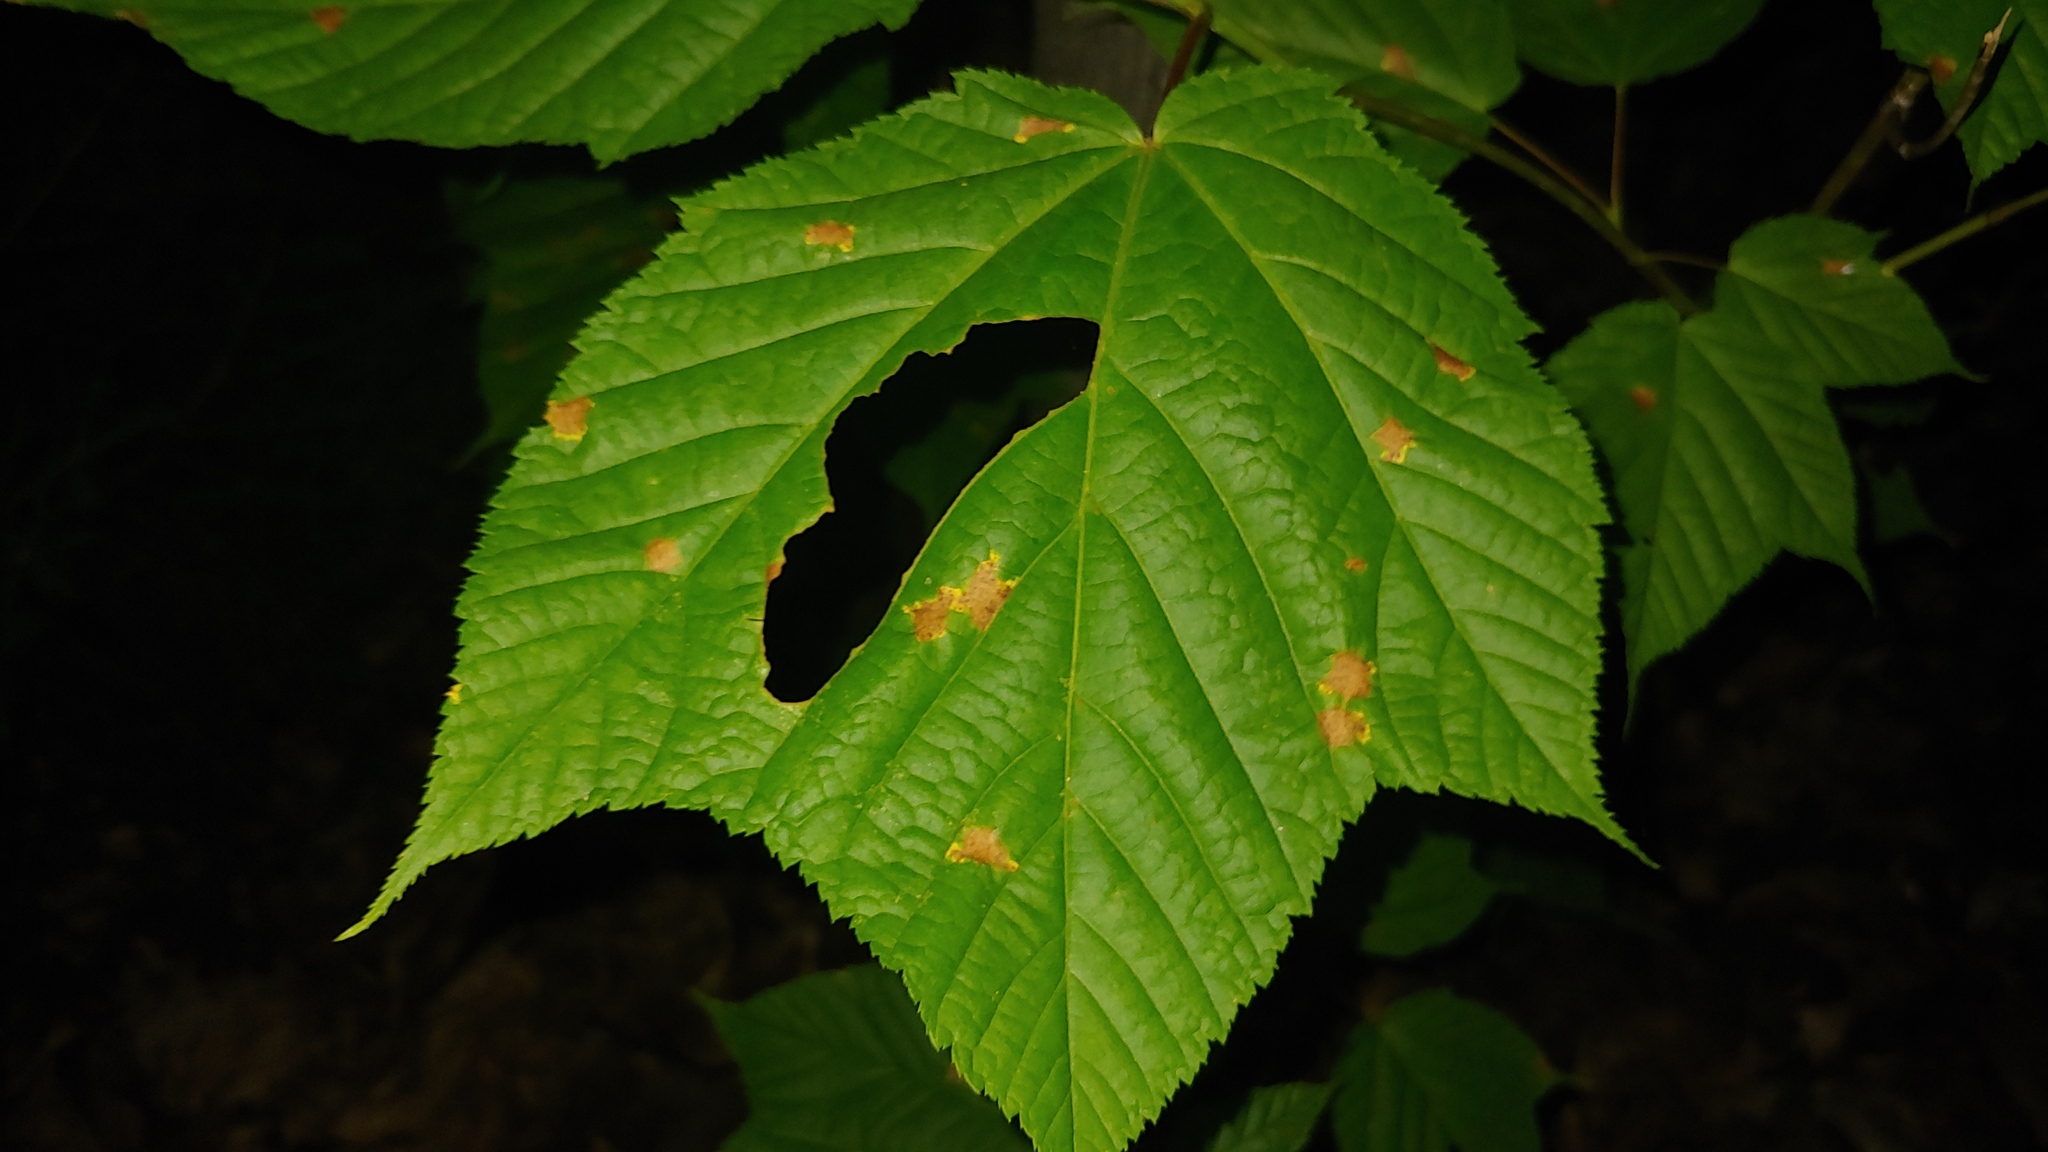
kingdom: Plantae
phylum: Tracheophyta
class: Magnoliopsida
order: Sapindales
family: Sapindaceae
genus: Acer
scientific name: Acer pensylvanicum
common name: Moosewood
